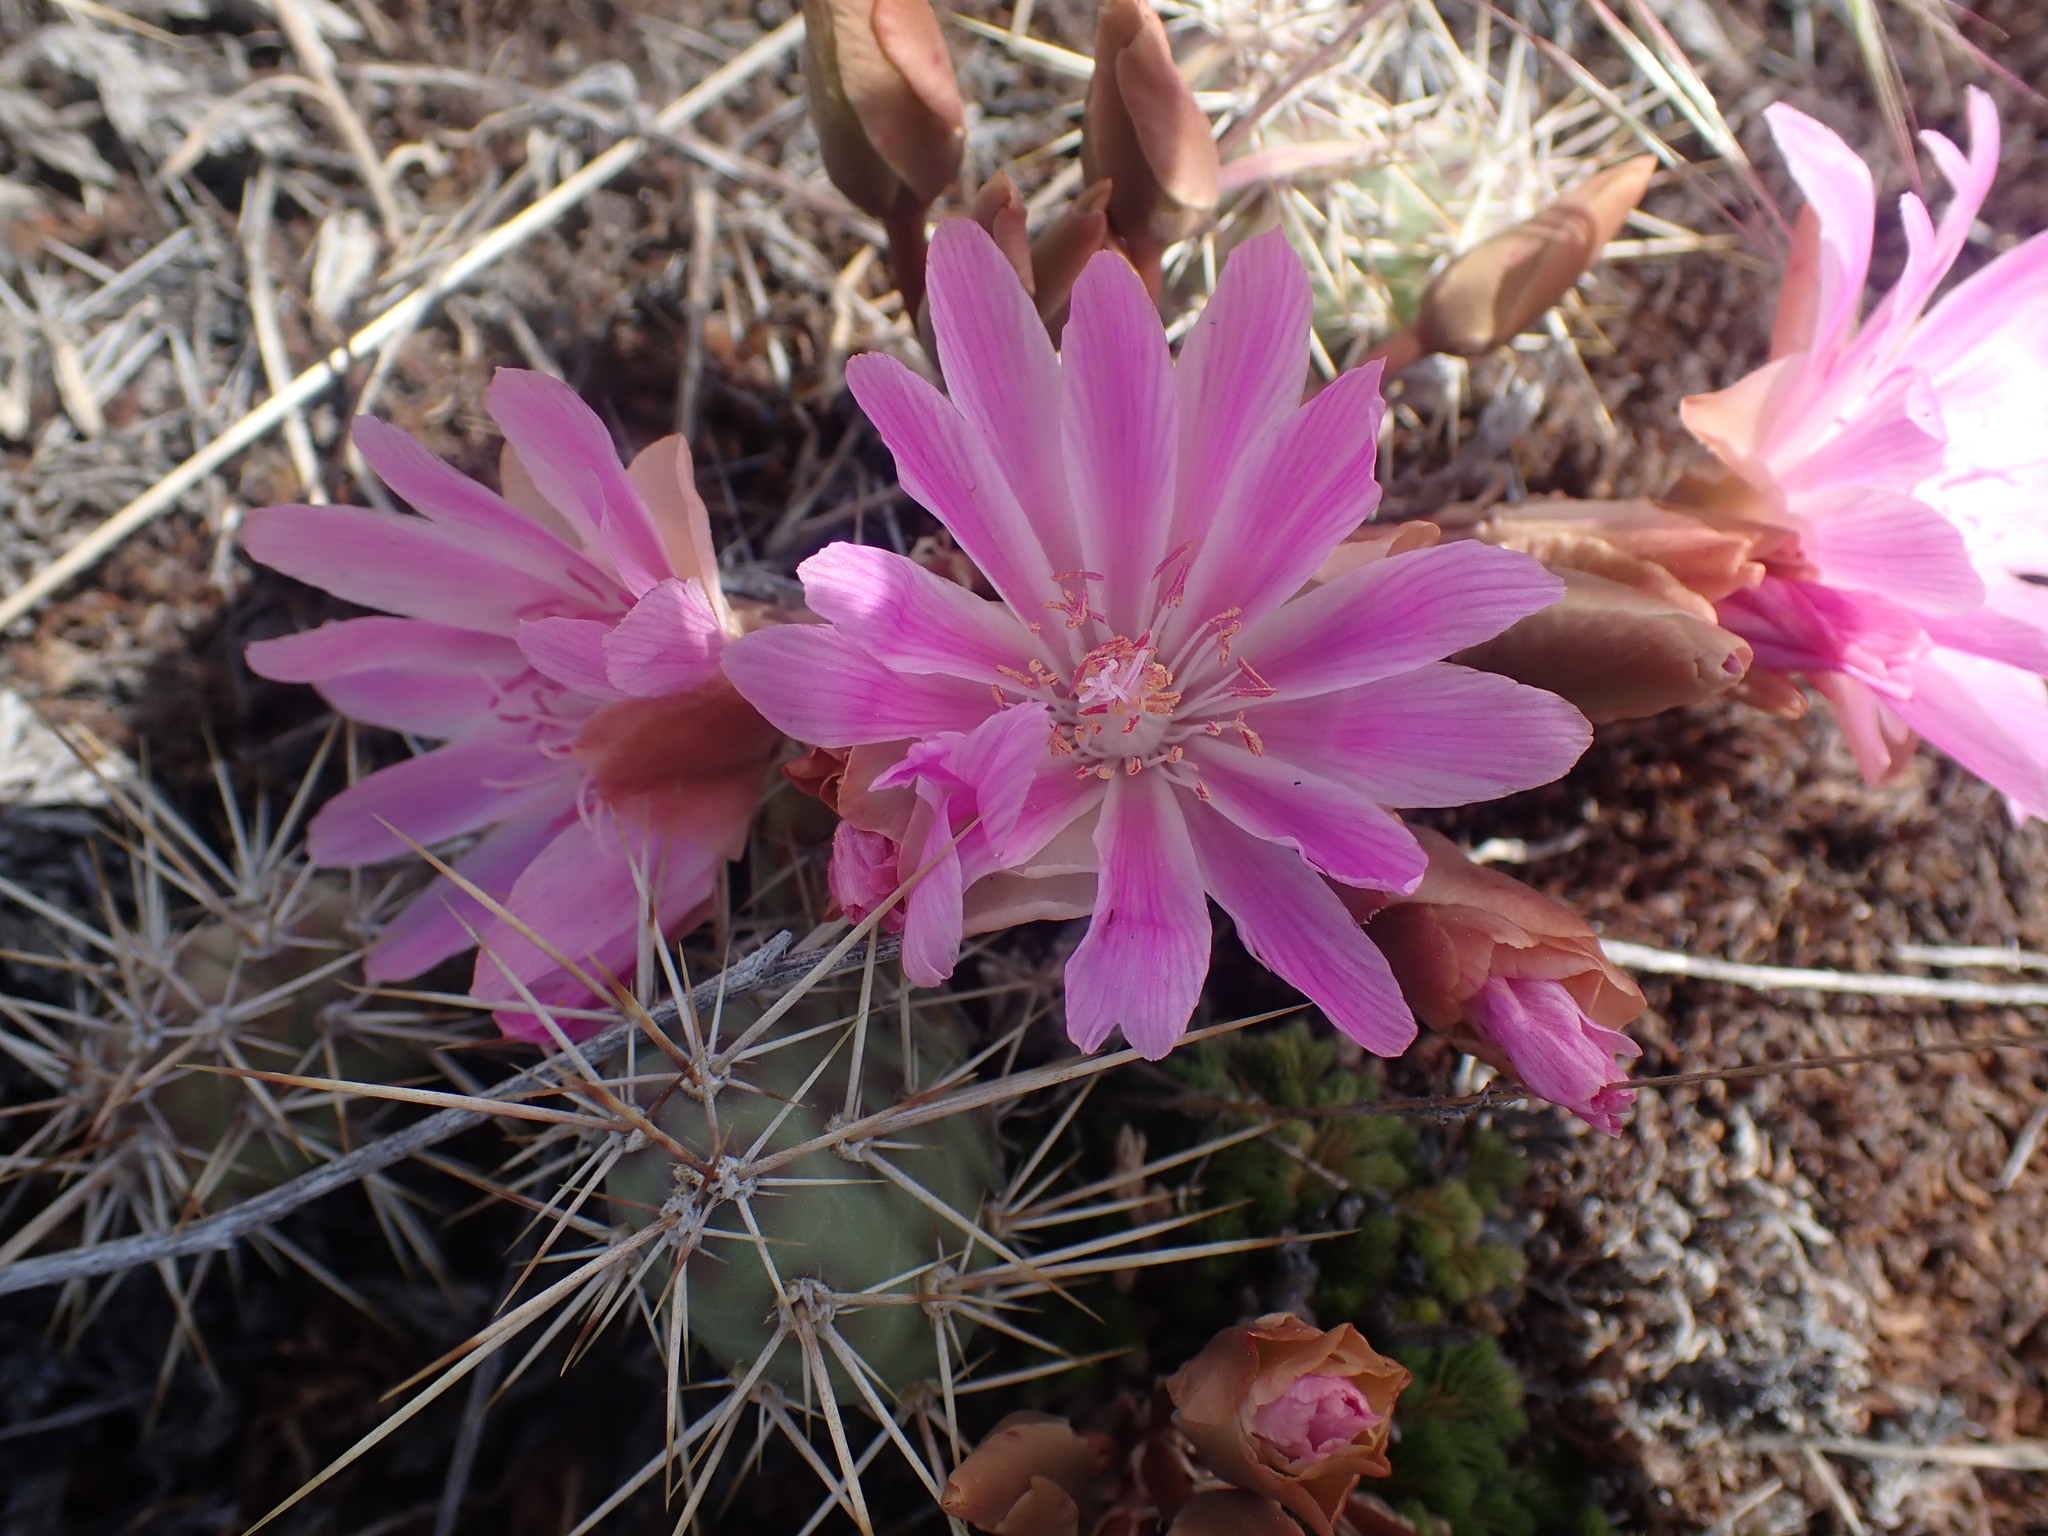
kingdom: Plantae
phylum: Tracheophyta
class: Magnoliopsida
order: Caryophyllales
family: Montiaceae
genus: Lewisia
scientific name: Lewisia rediviva
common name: Bitter-root
